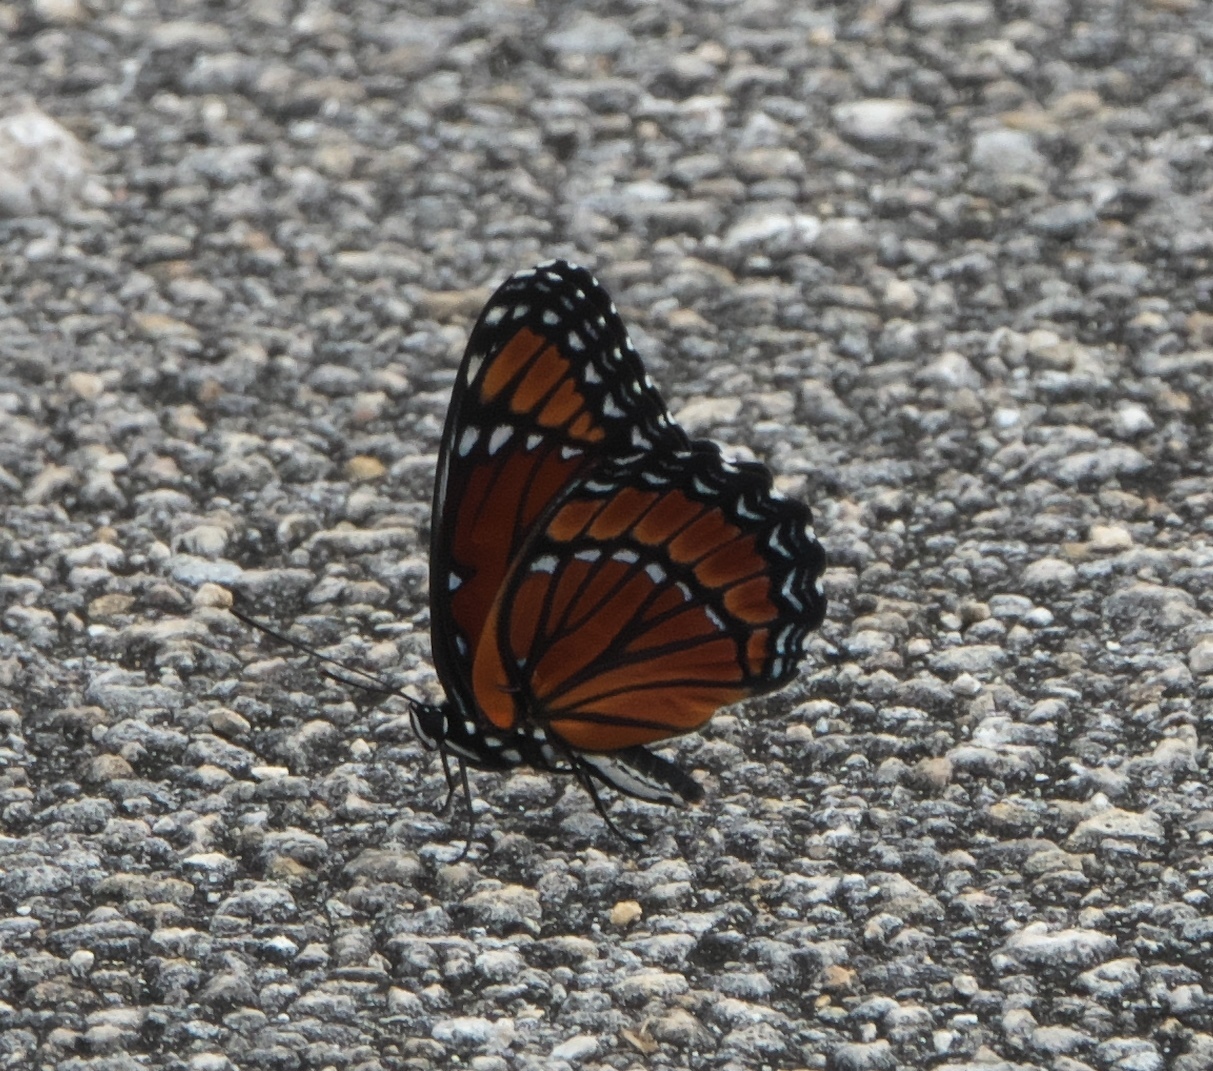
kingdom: Animalia
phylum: Arthropoda
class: Insecta
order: Lepidoptera
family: Nymphalidae
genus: Limenitis
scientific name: Limenitis archippus
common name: Viceroy
